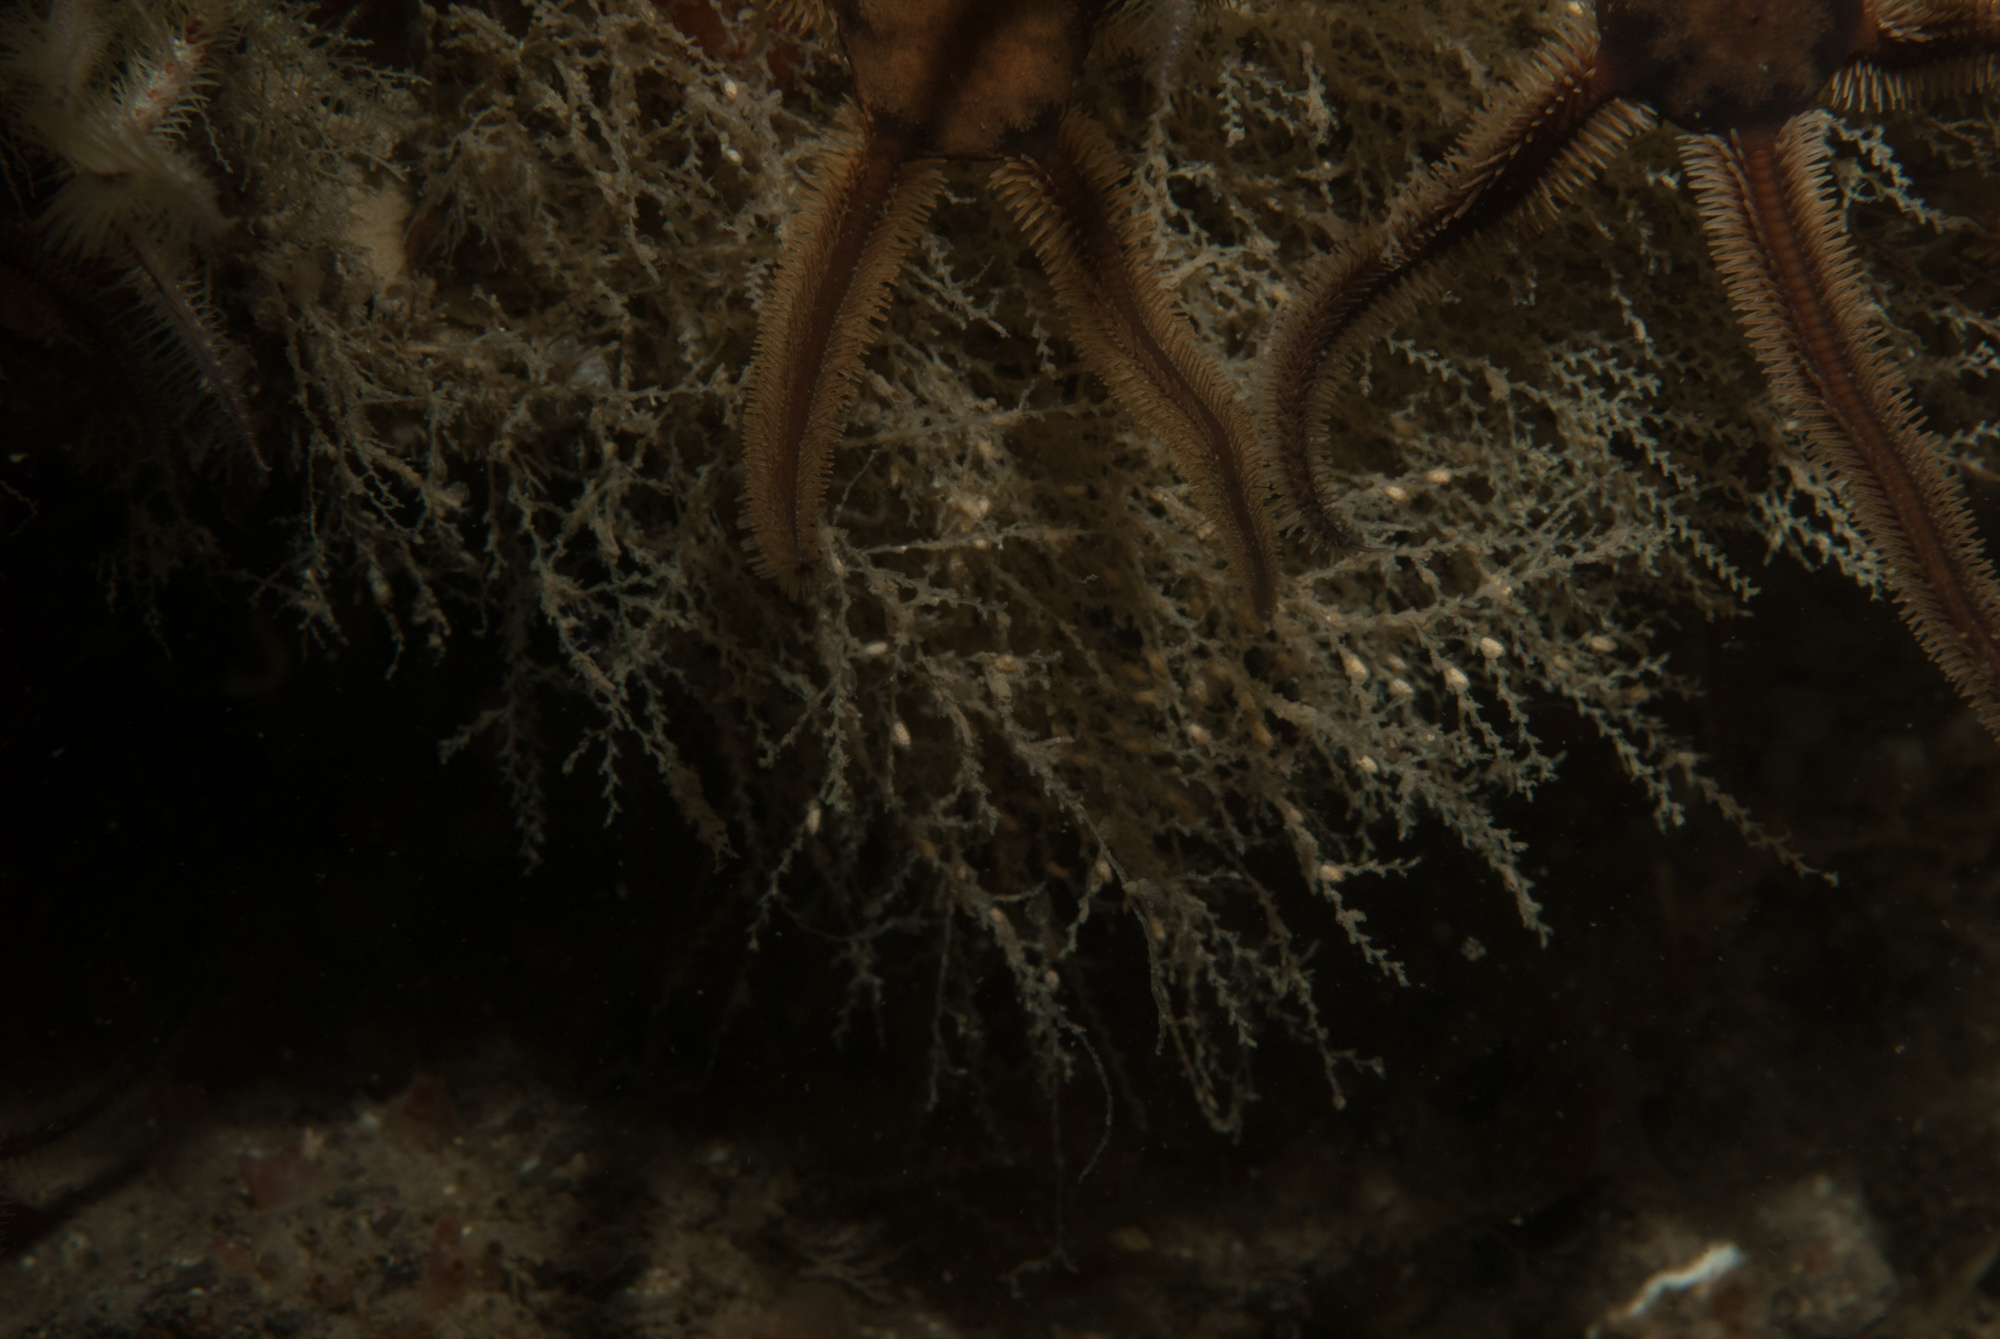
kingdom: Animalia
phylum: Cnidaria
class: Hydrozoa
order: Leptothecata
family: Sertularellidae
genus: Sertularella
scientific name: Sertularella polyzonias
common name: Great tooth hydroid
